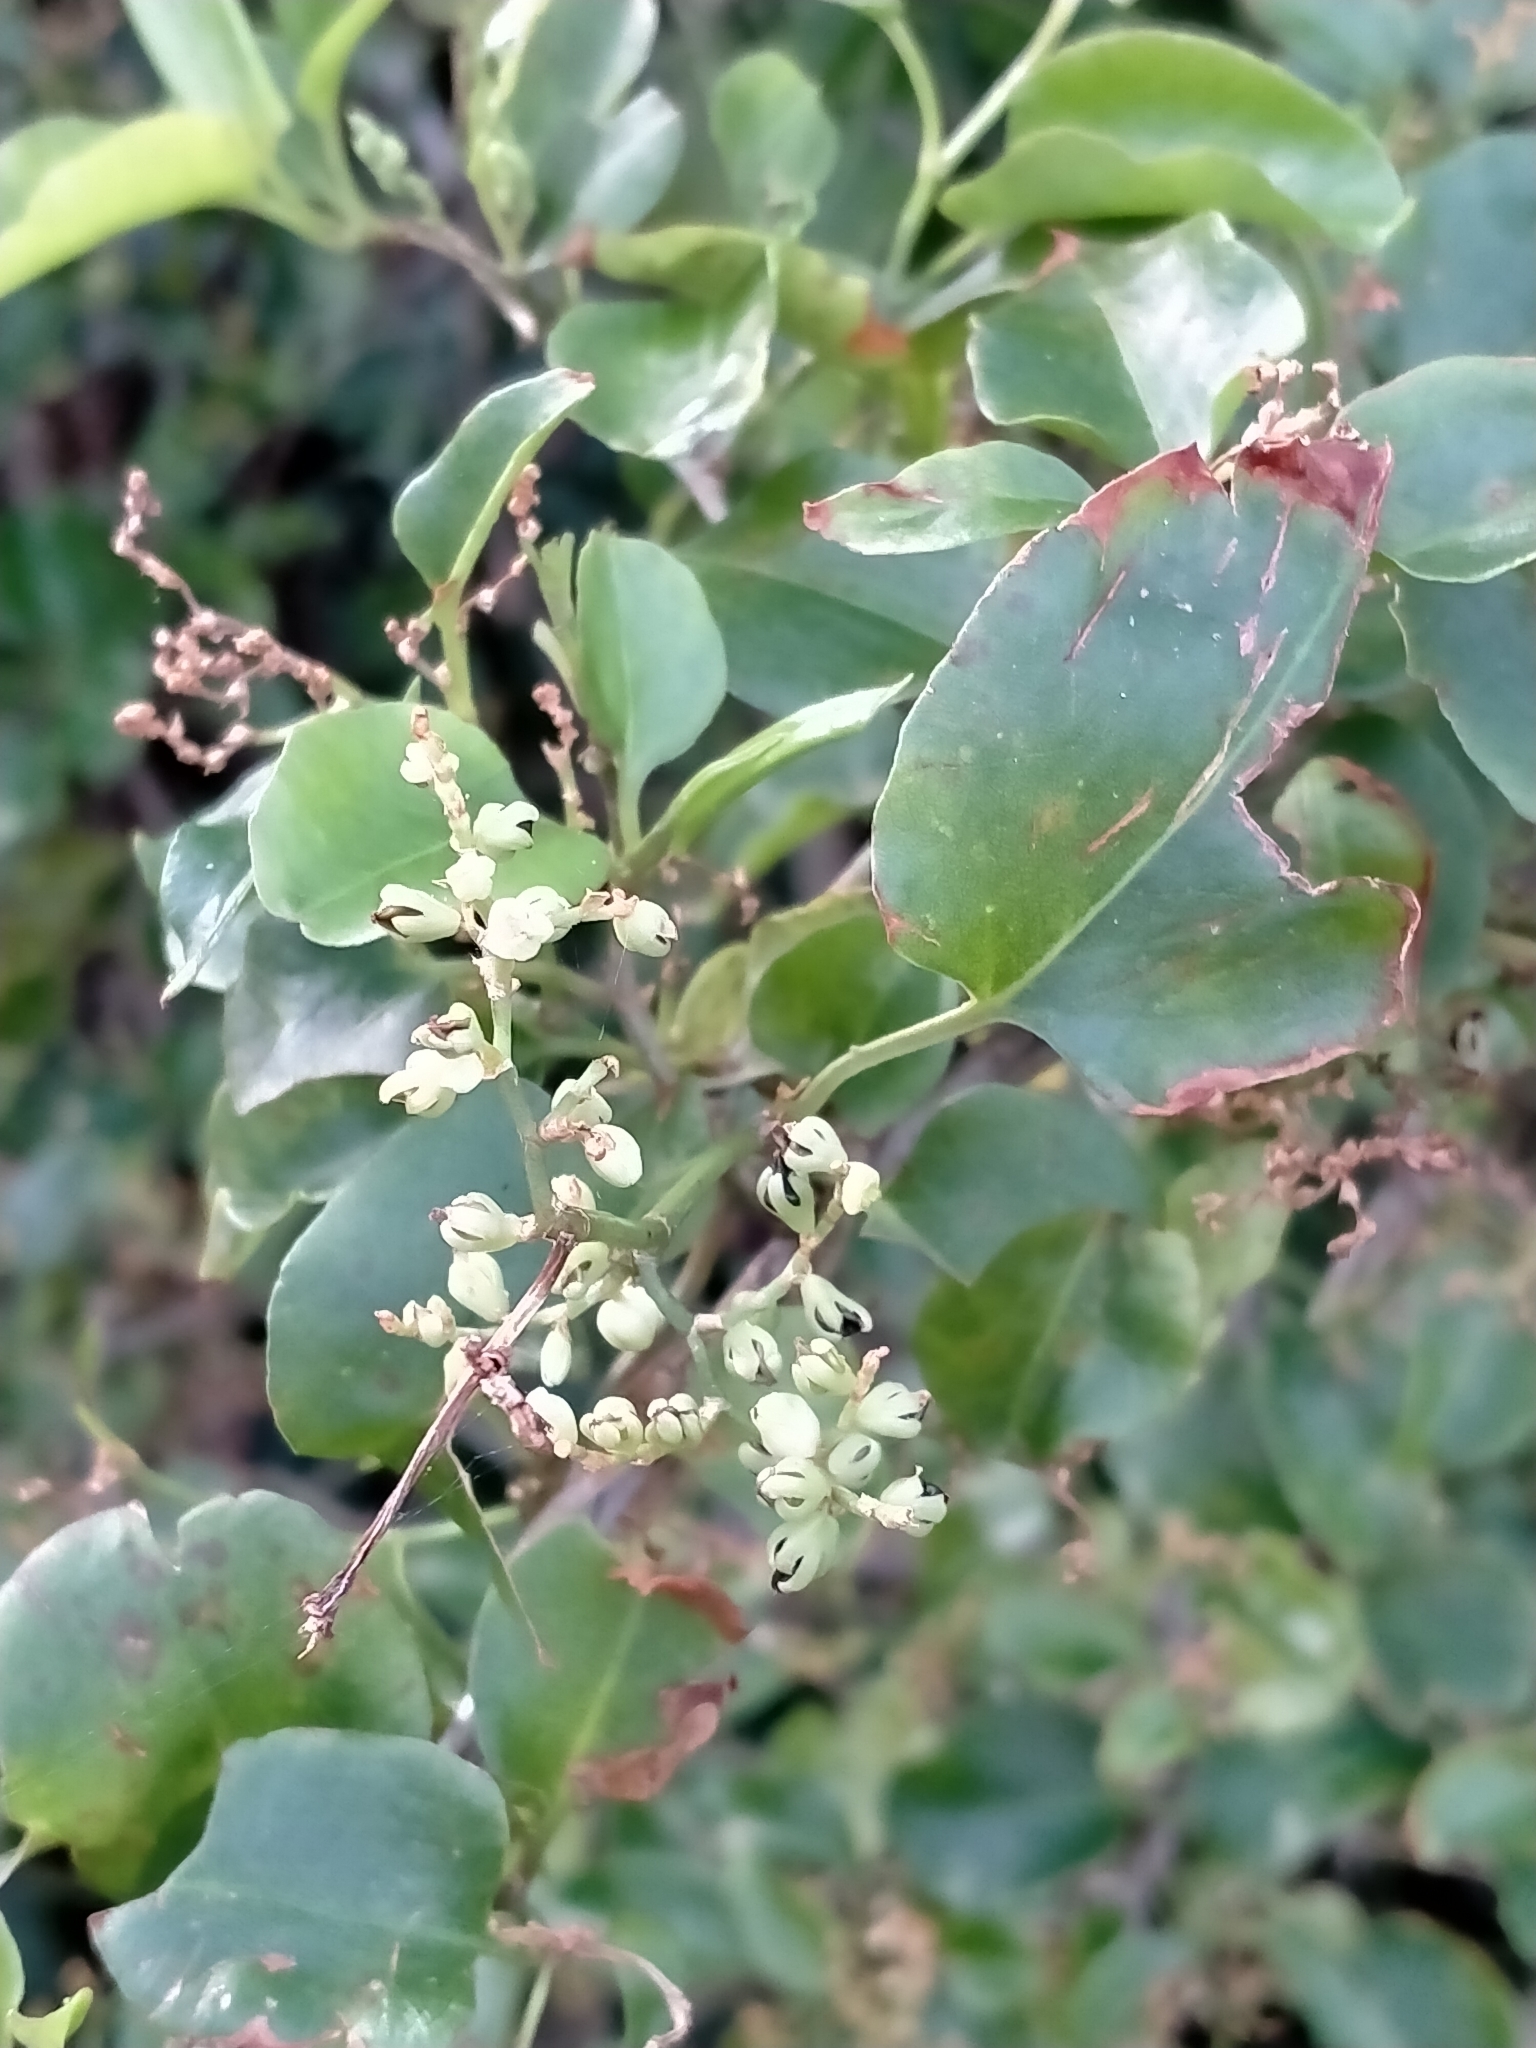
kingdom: Plantae
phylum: Tracheophyta
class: Magnoliopsida
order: Caryophyllales
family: Polygonaceae
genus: Muehlenbeckia
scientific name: Muehlenbeckia australis
